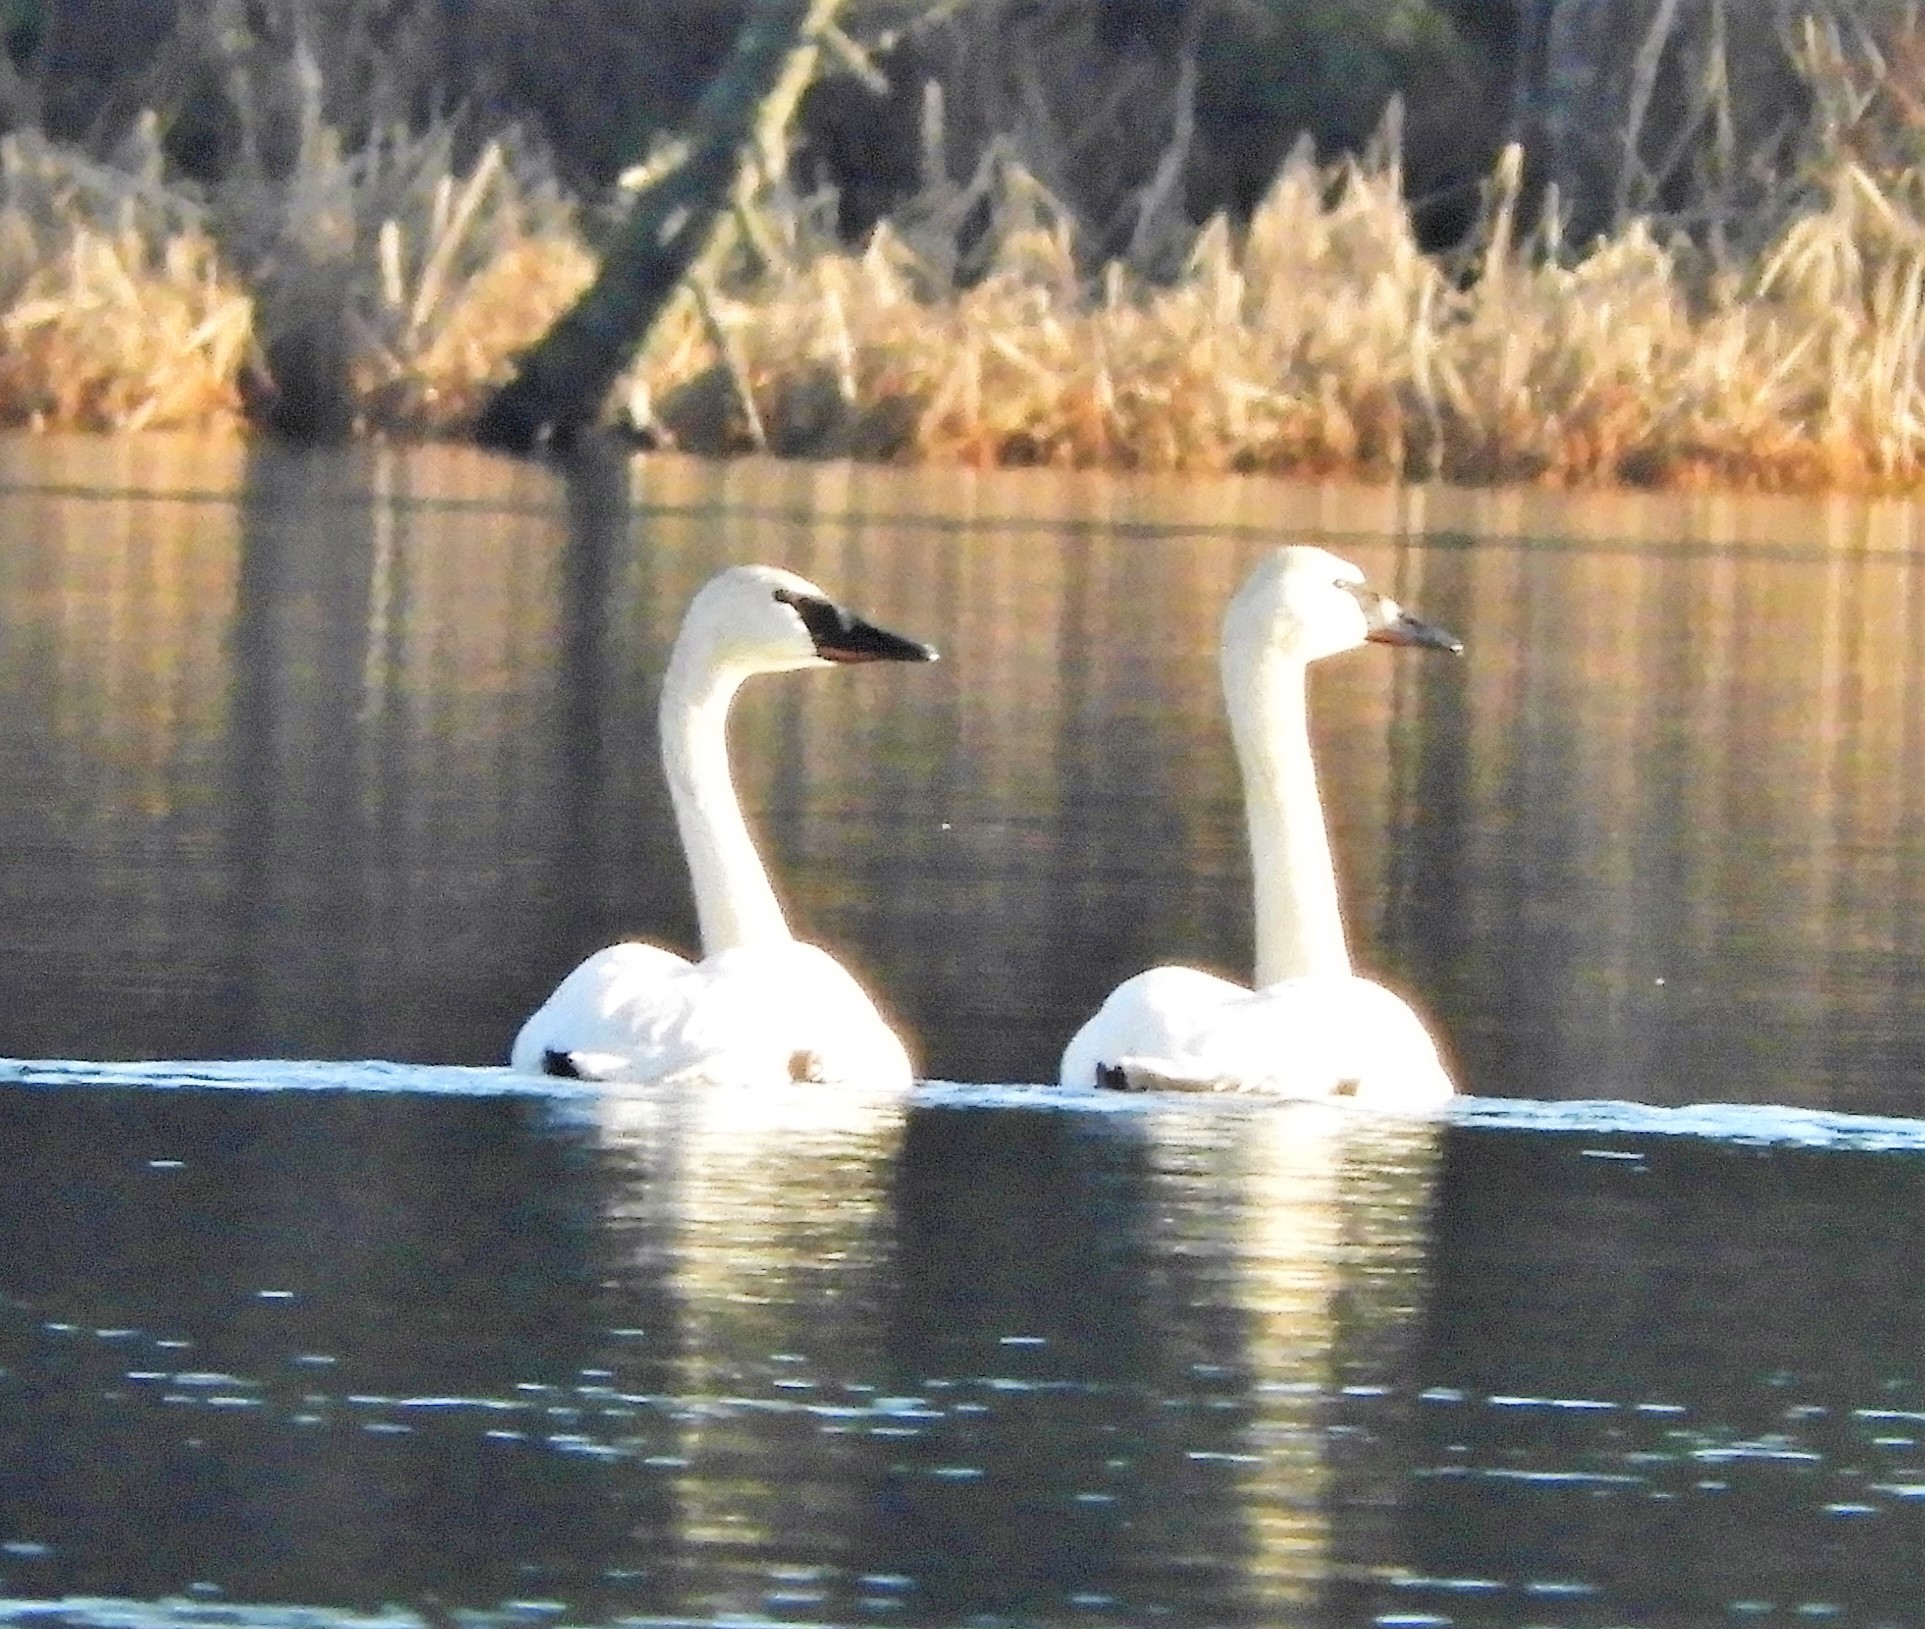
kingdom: Animalia
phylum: Chordata
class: Aves
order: Anseriformes
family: Anatidae
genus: Cygnus
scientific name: Cygnus buccinator
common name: Trumpeter swan
